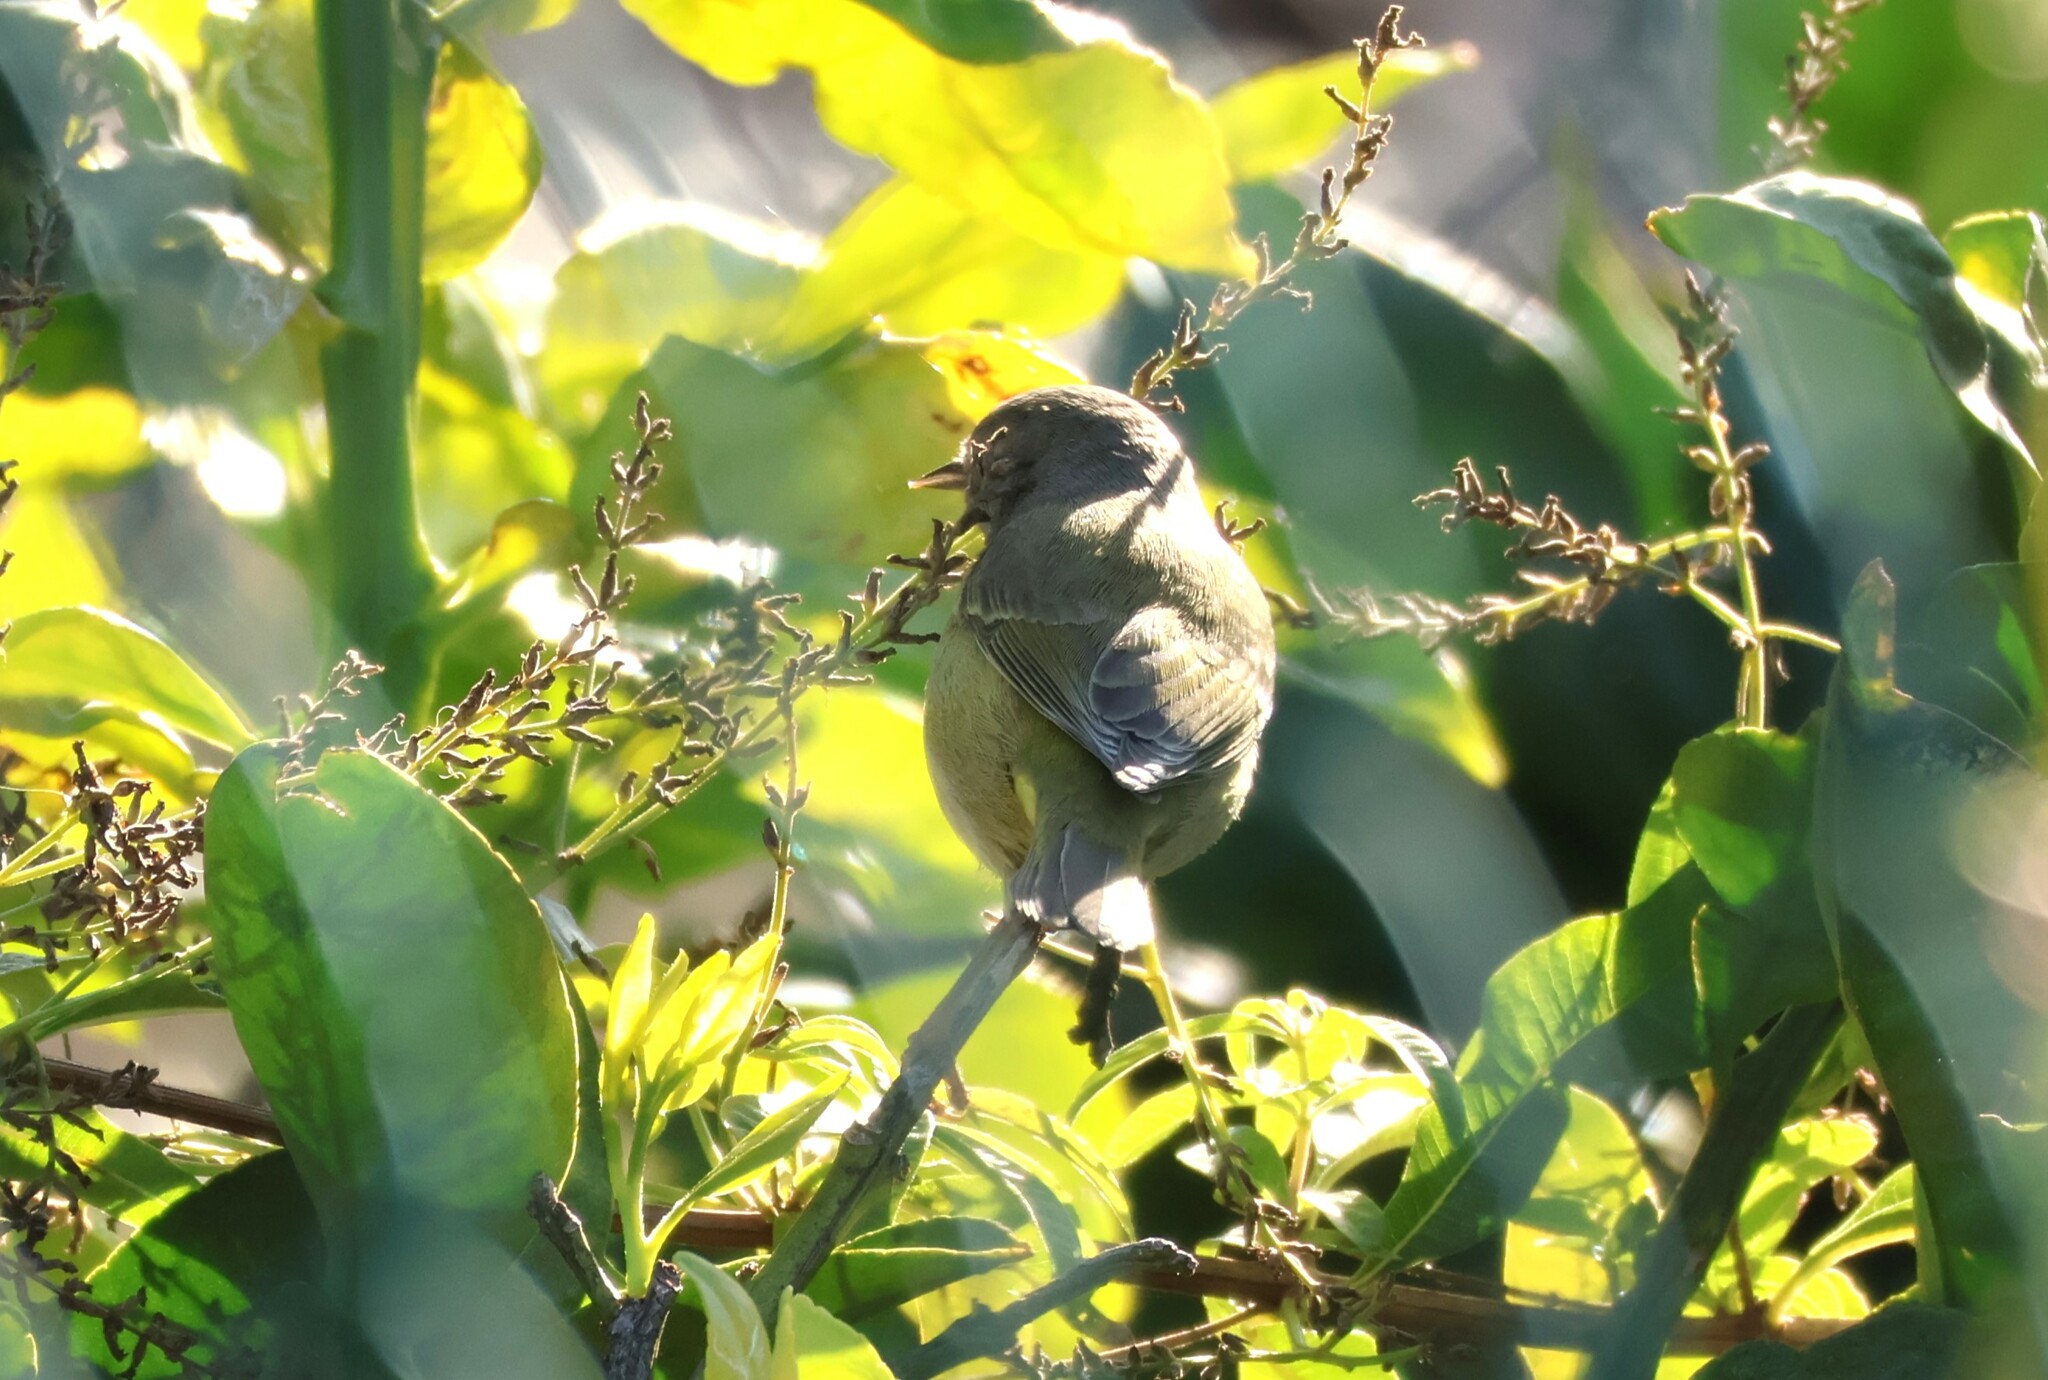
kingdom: Animalia
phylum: Chordata
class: Aves
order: Passeriformes
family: Parulidae
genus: Leiothlypis
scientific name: Leiothlypis celata
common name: Orange-crowned warbler
